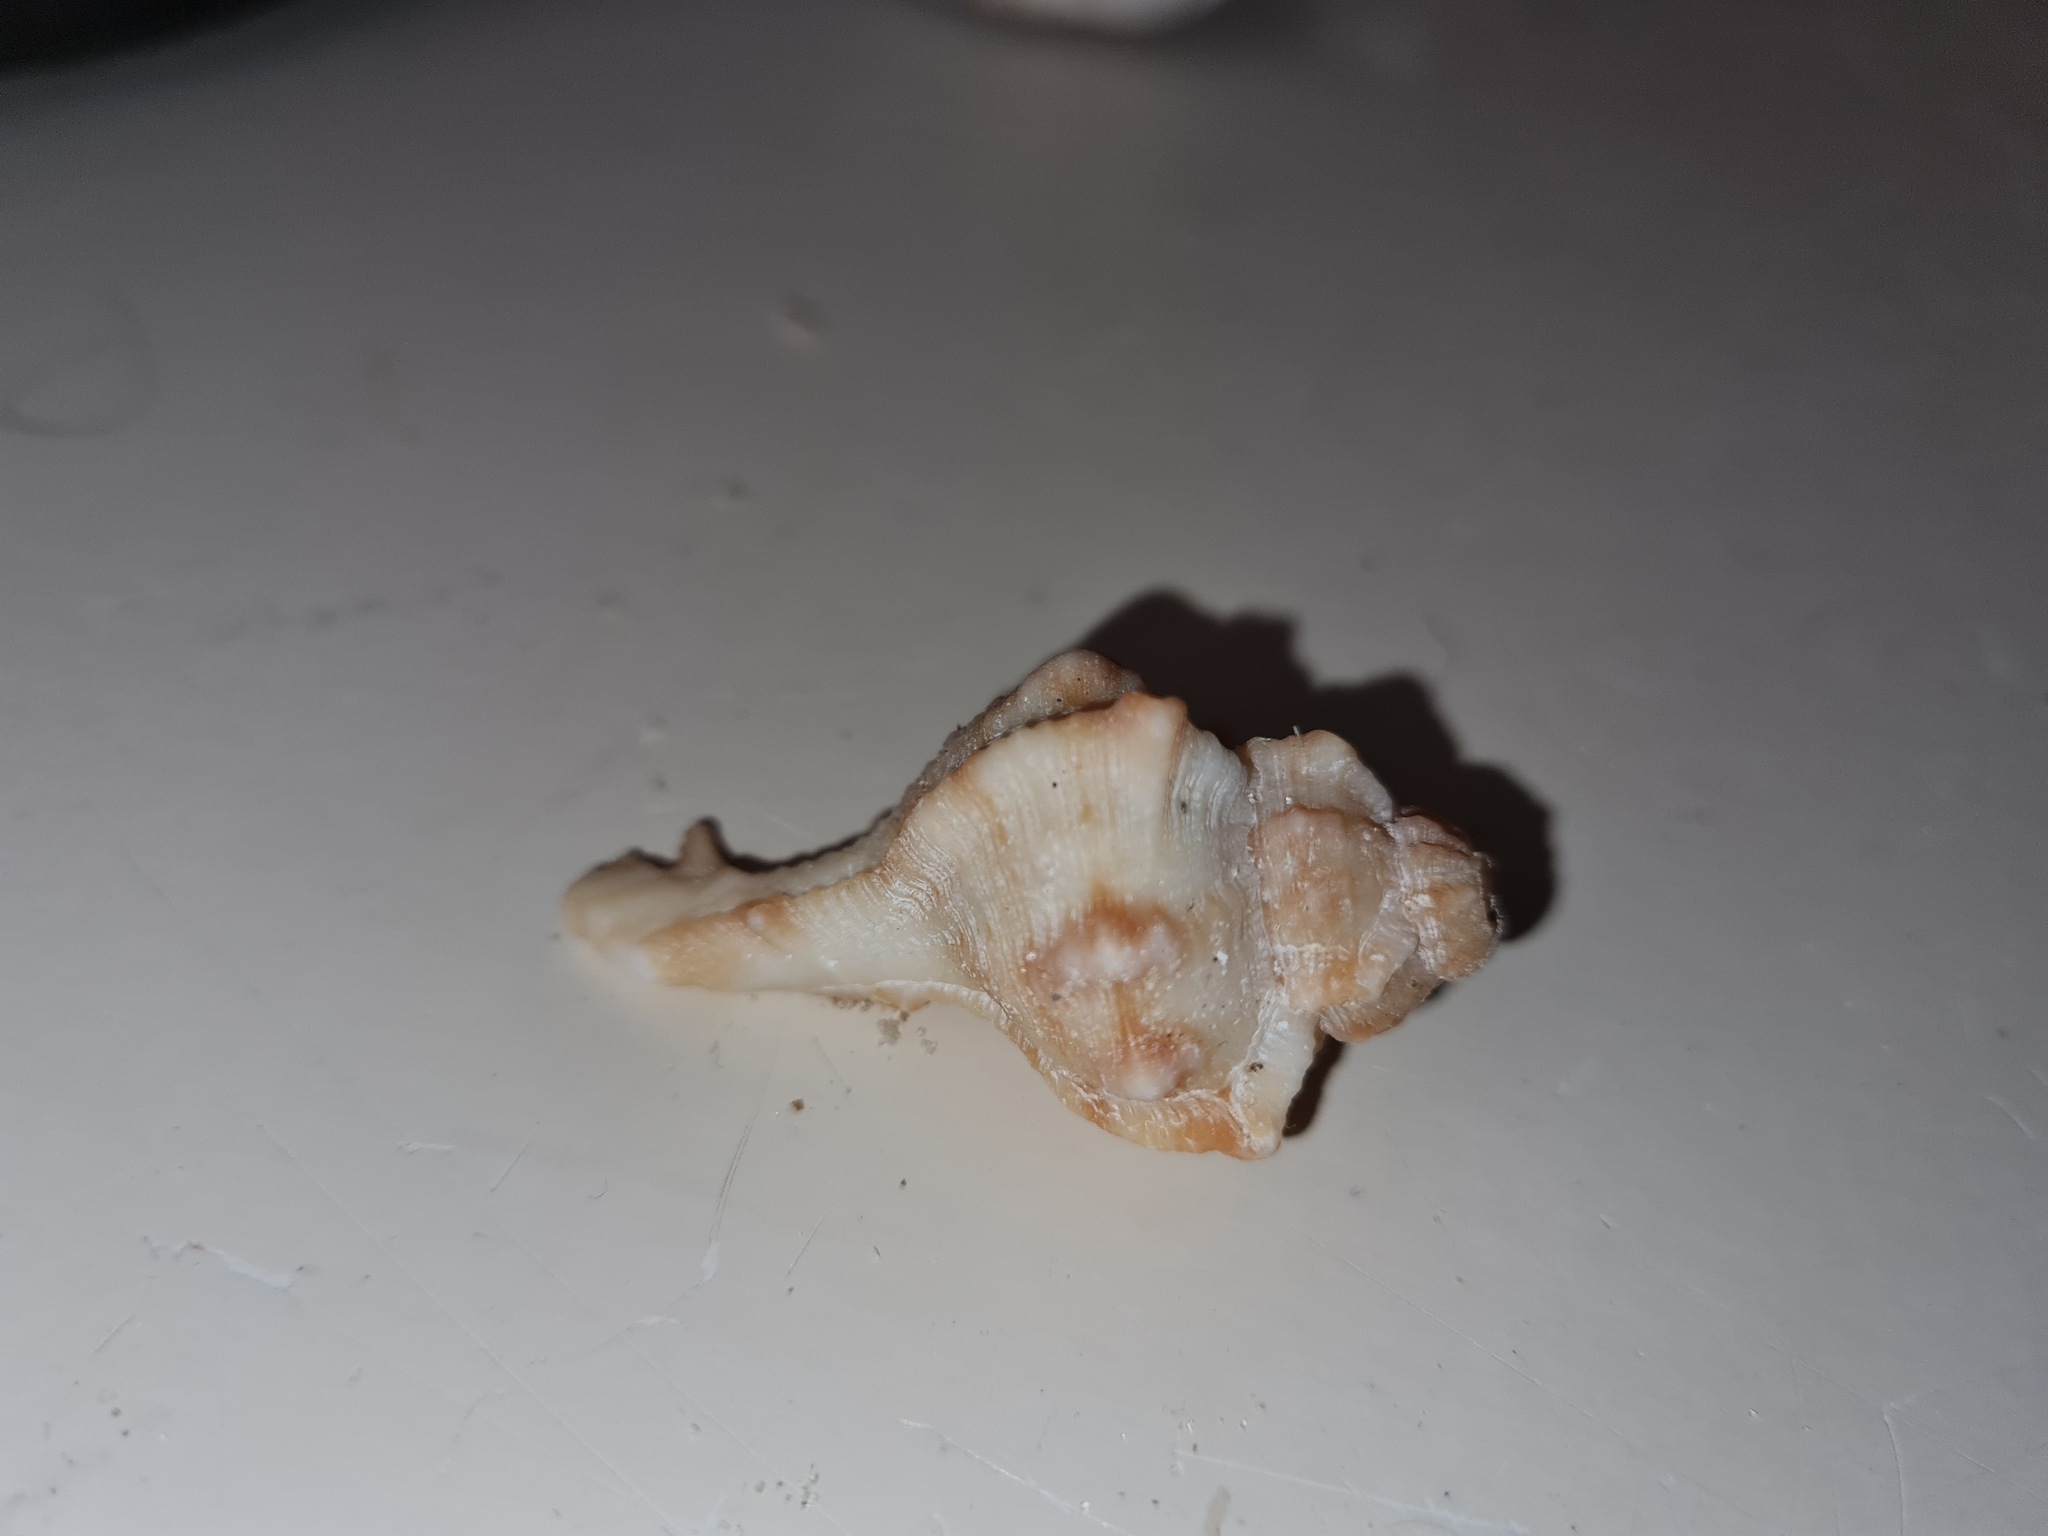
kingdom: Animalia
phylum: Mollusca
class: Gastropoda
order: Neogastropoda
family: Muricidae
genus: Siratus
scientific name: Siratus senegalensis
